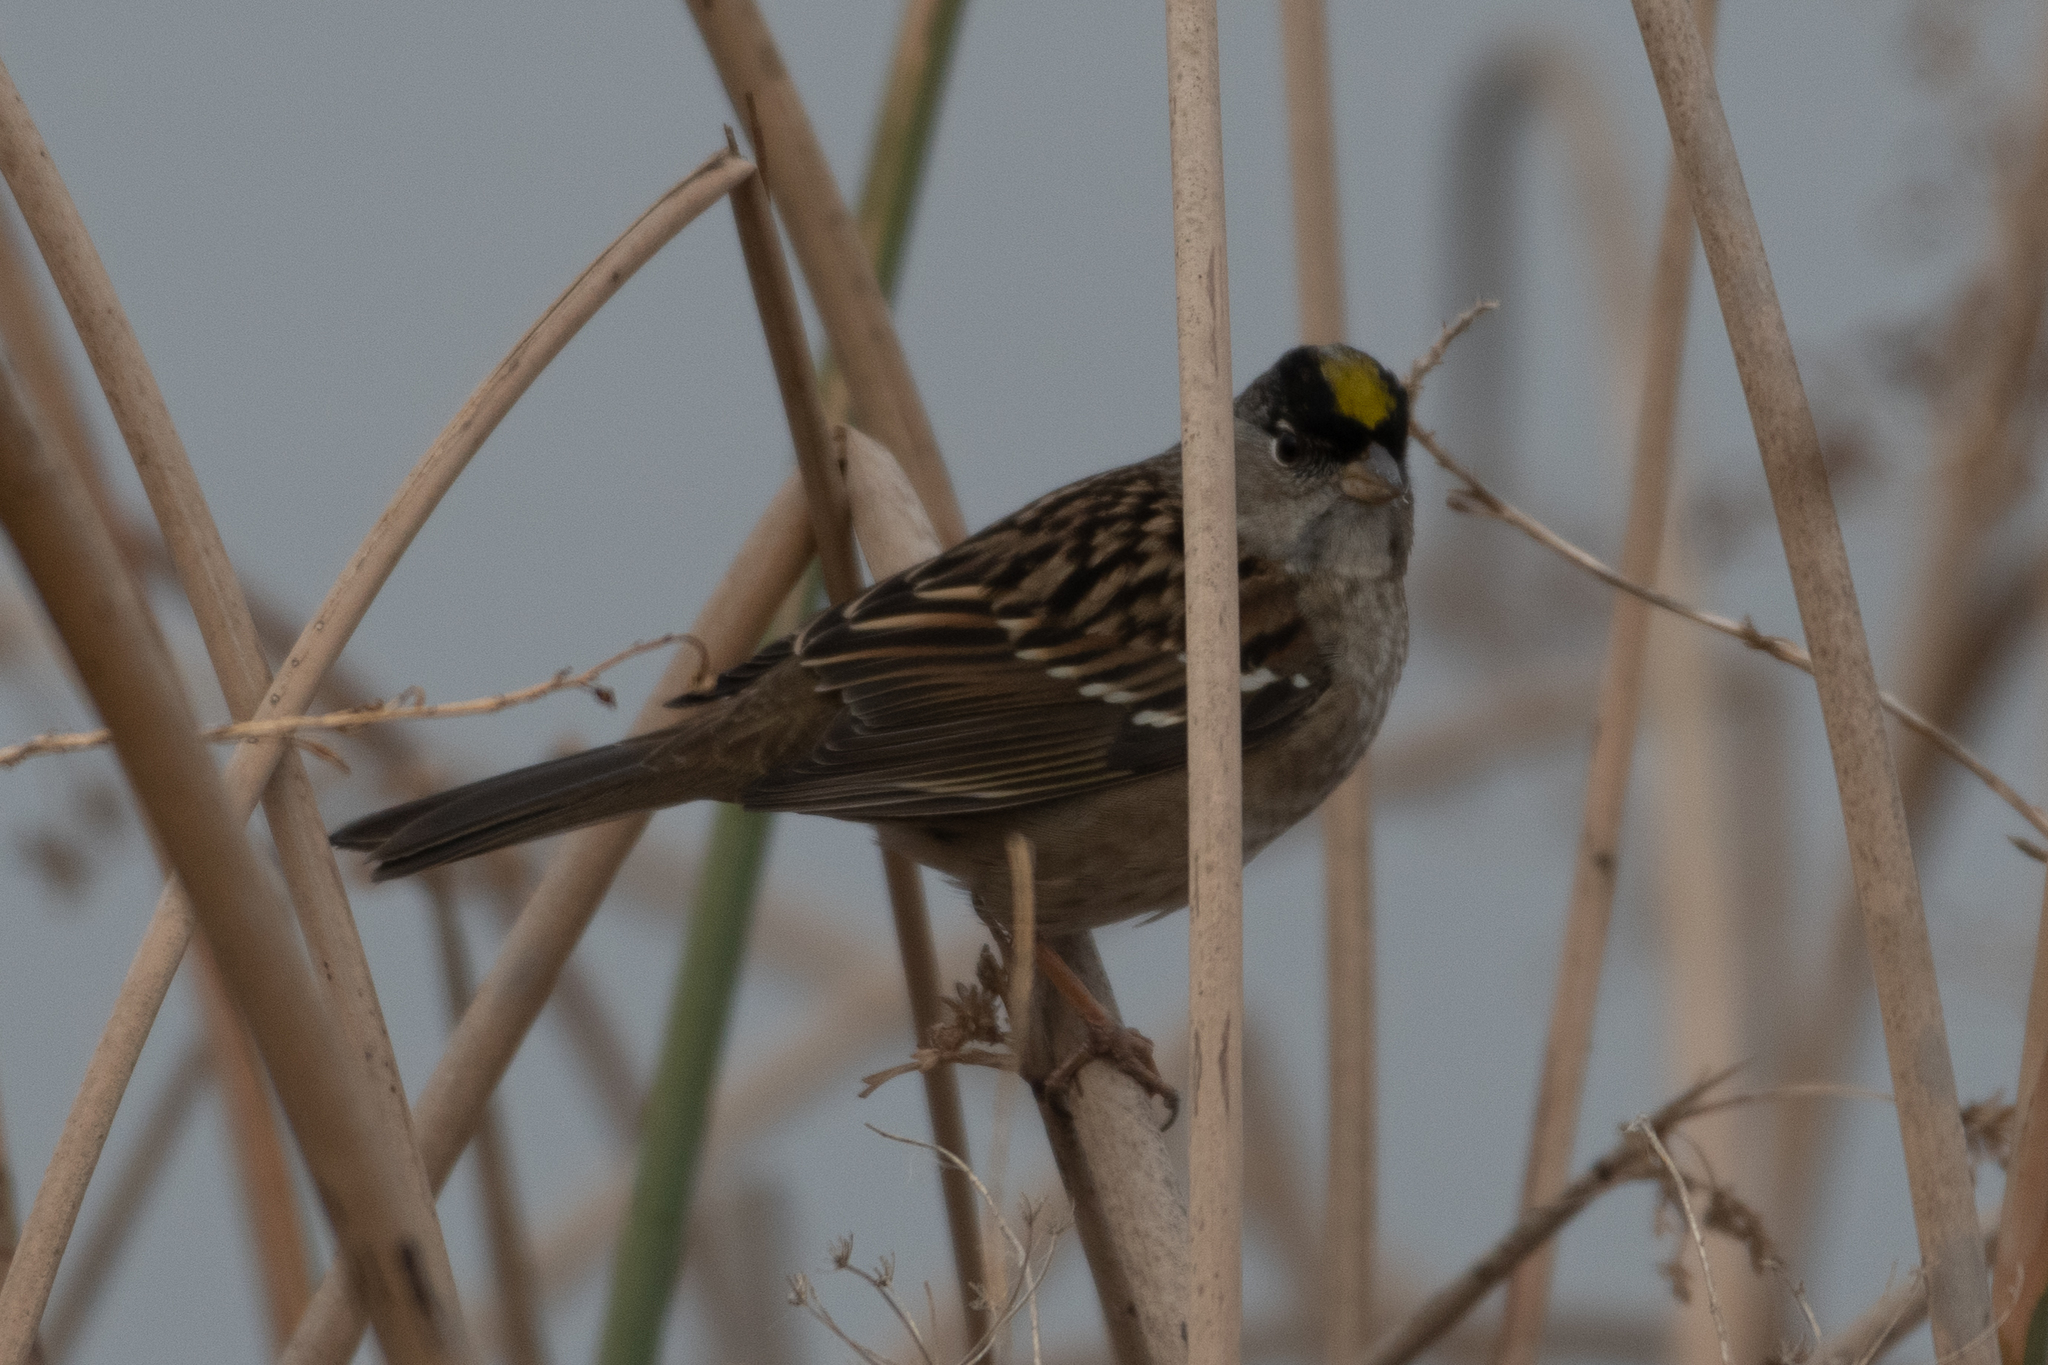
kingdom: Animalia
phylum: Chordata
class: Aves
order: Passeriformes
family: Passerellidae
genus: Zonotrichia
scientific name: Zonotrichia atricapilla
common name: Golden-crowned sparrow
